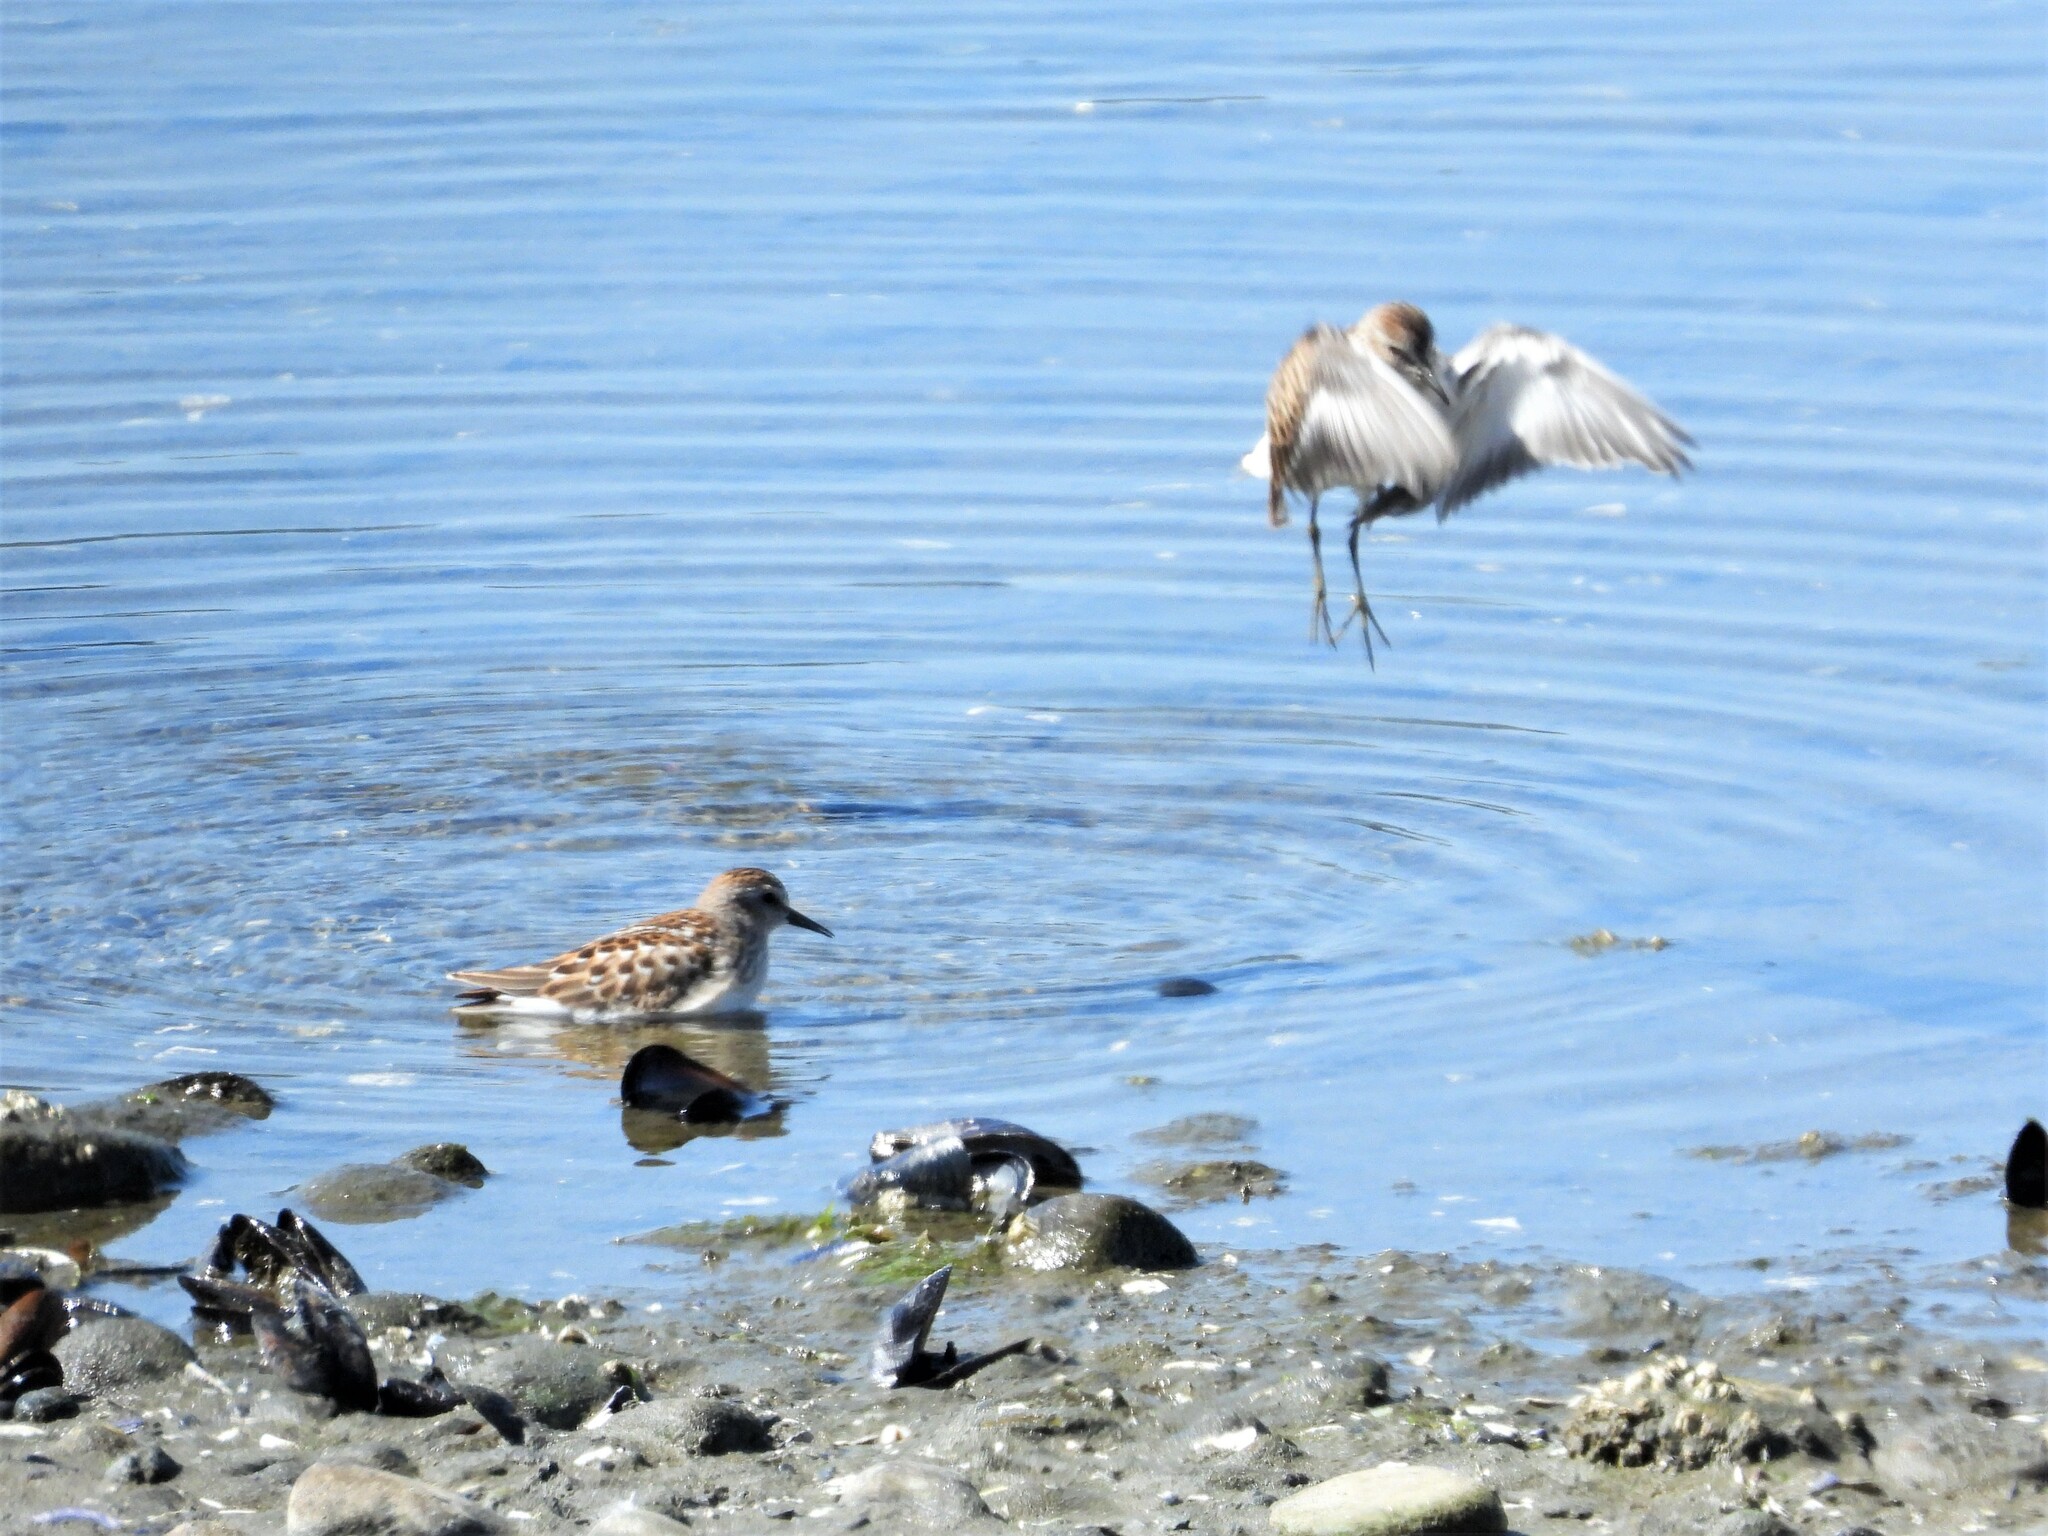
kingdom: Animalia
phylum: Chordata
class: Aves
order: Charadriiformes
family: Scolopacidae
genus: Calidris
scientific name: Calidris minutilla
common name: Least sandpiper
